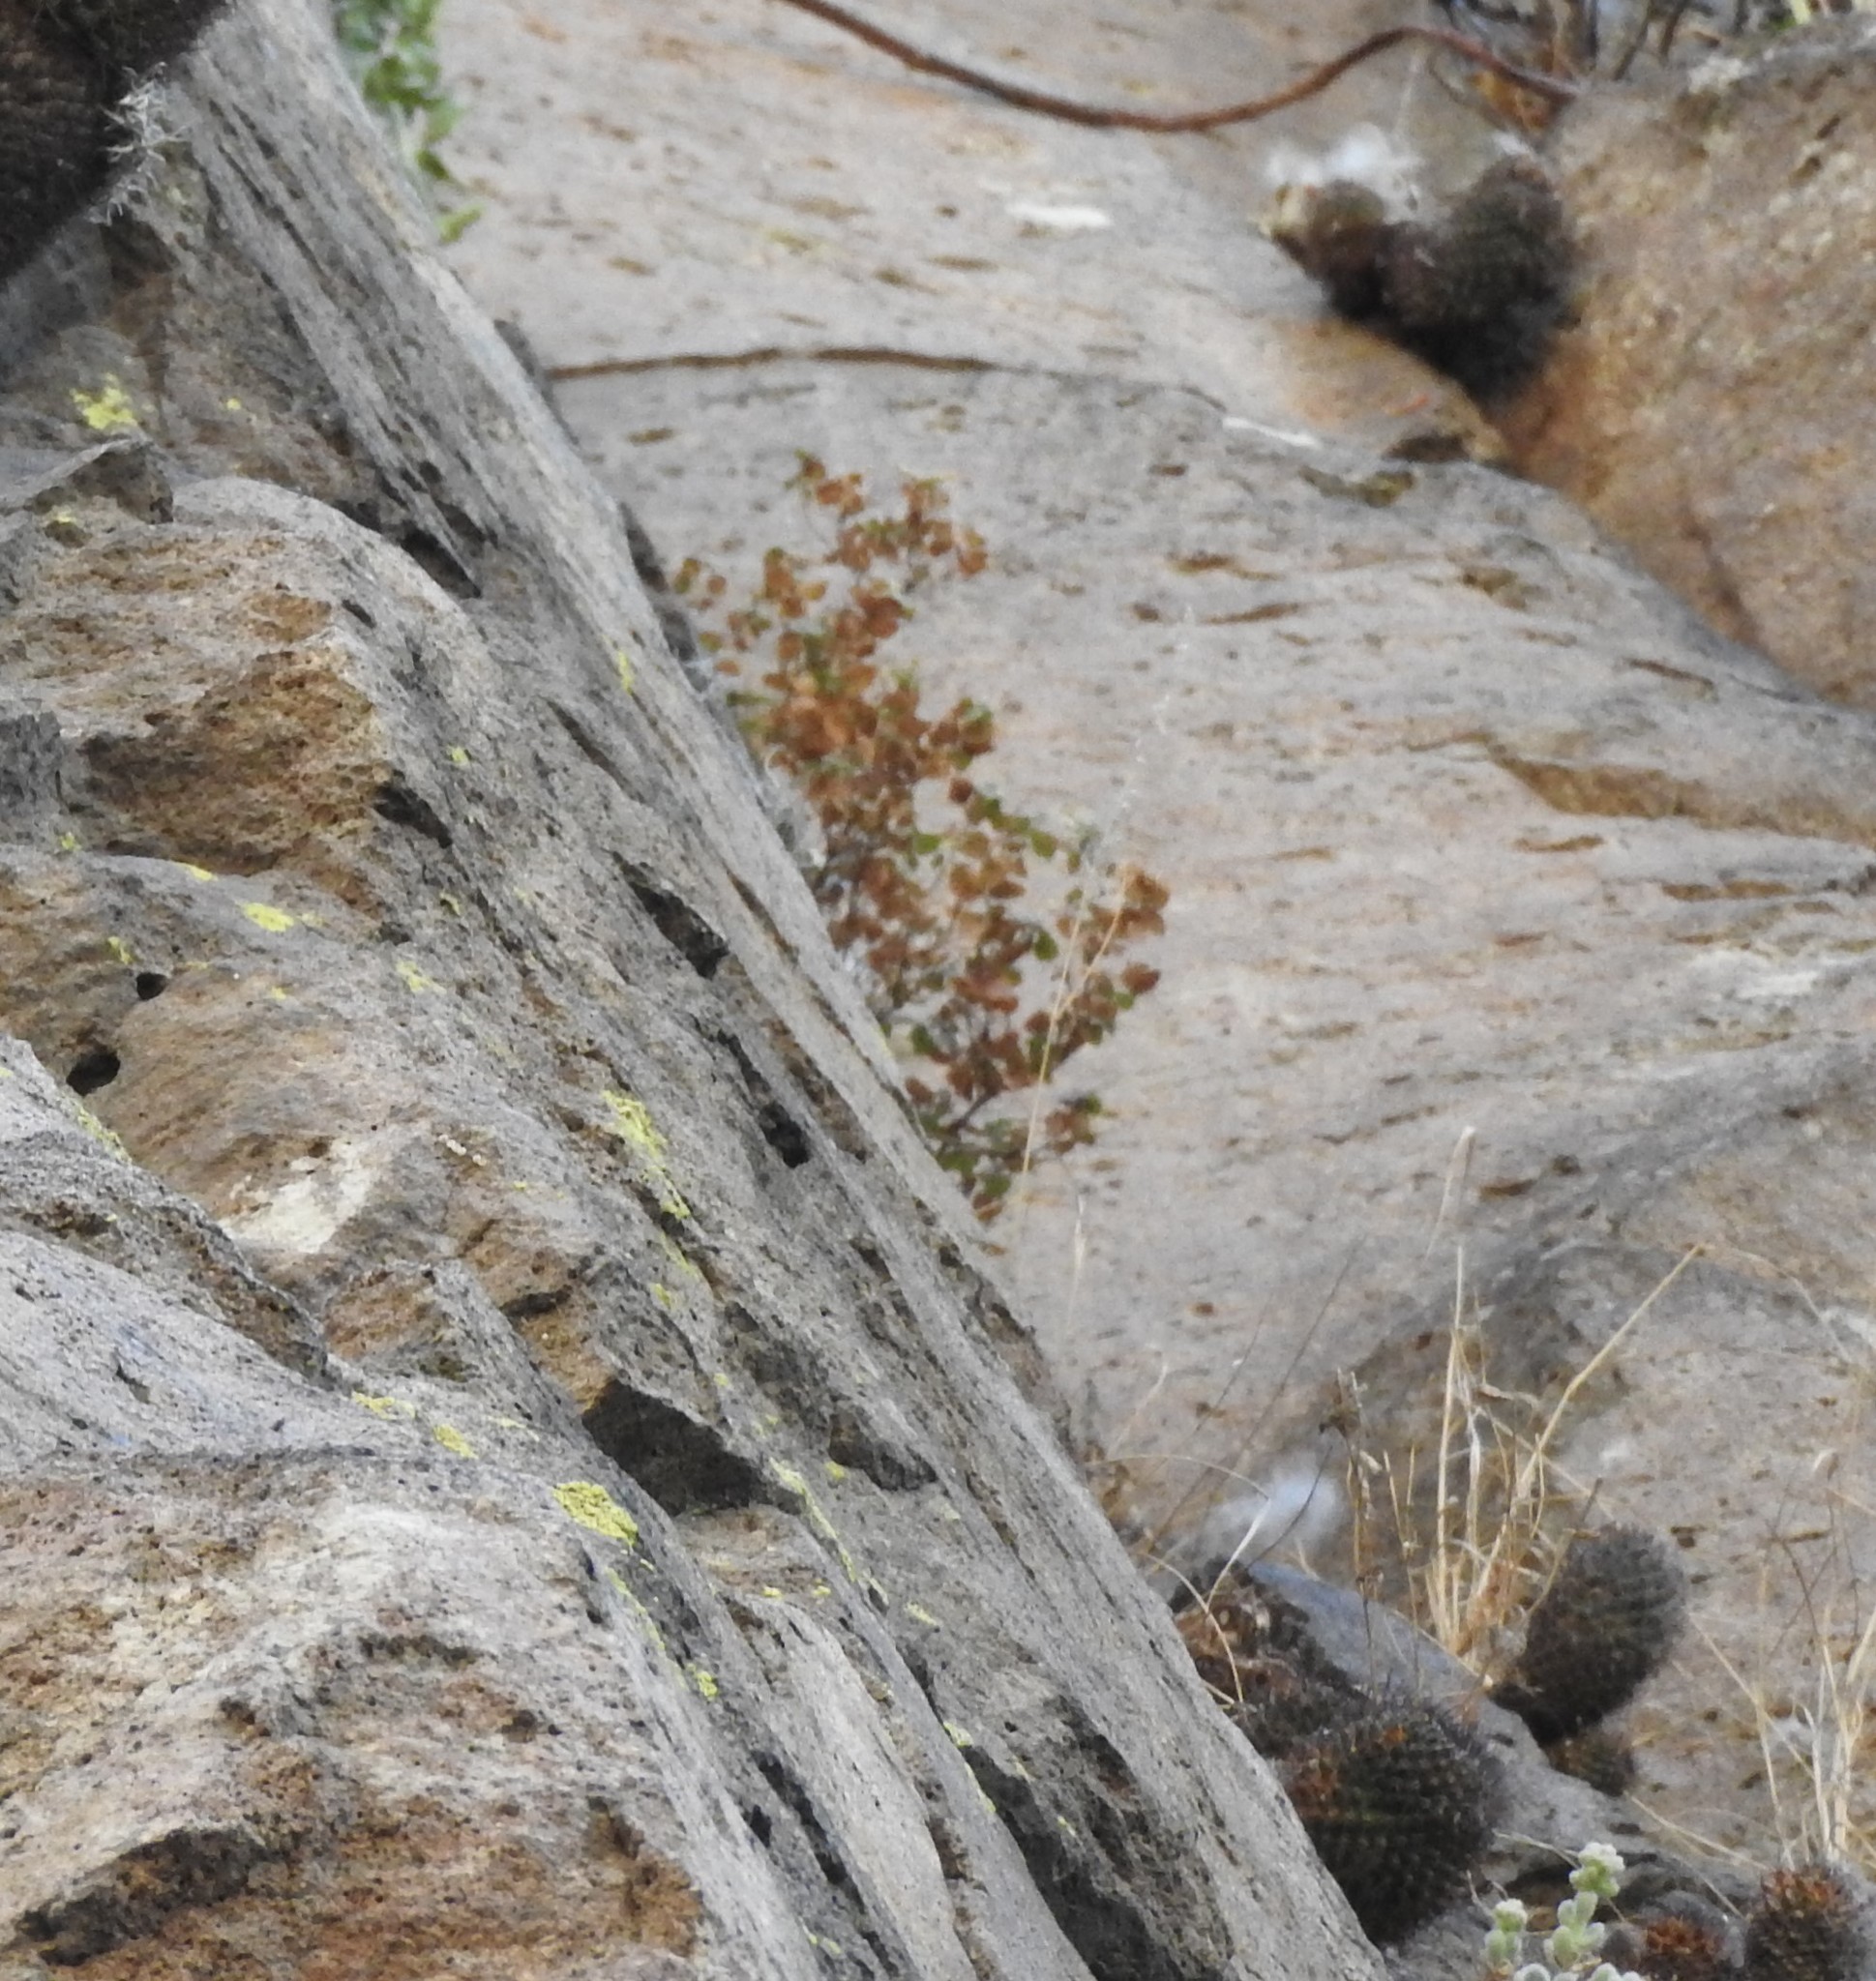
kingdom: Plantae
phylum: Tracheophyta
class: Magnoliopsida
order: Caryophyllales
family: Cactaceae
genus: Mammillaria
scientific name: Mammillaria polythele
